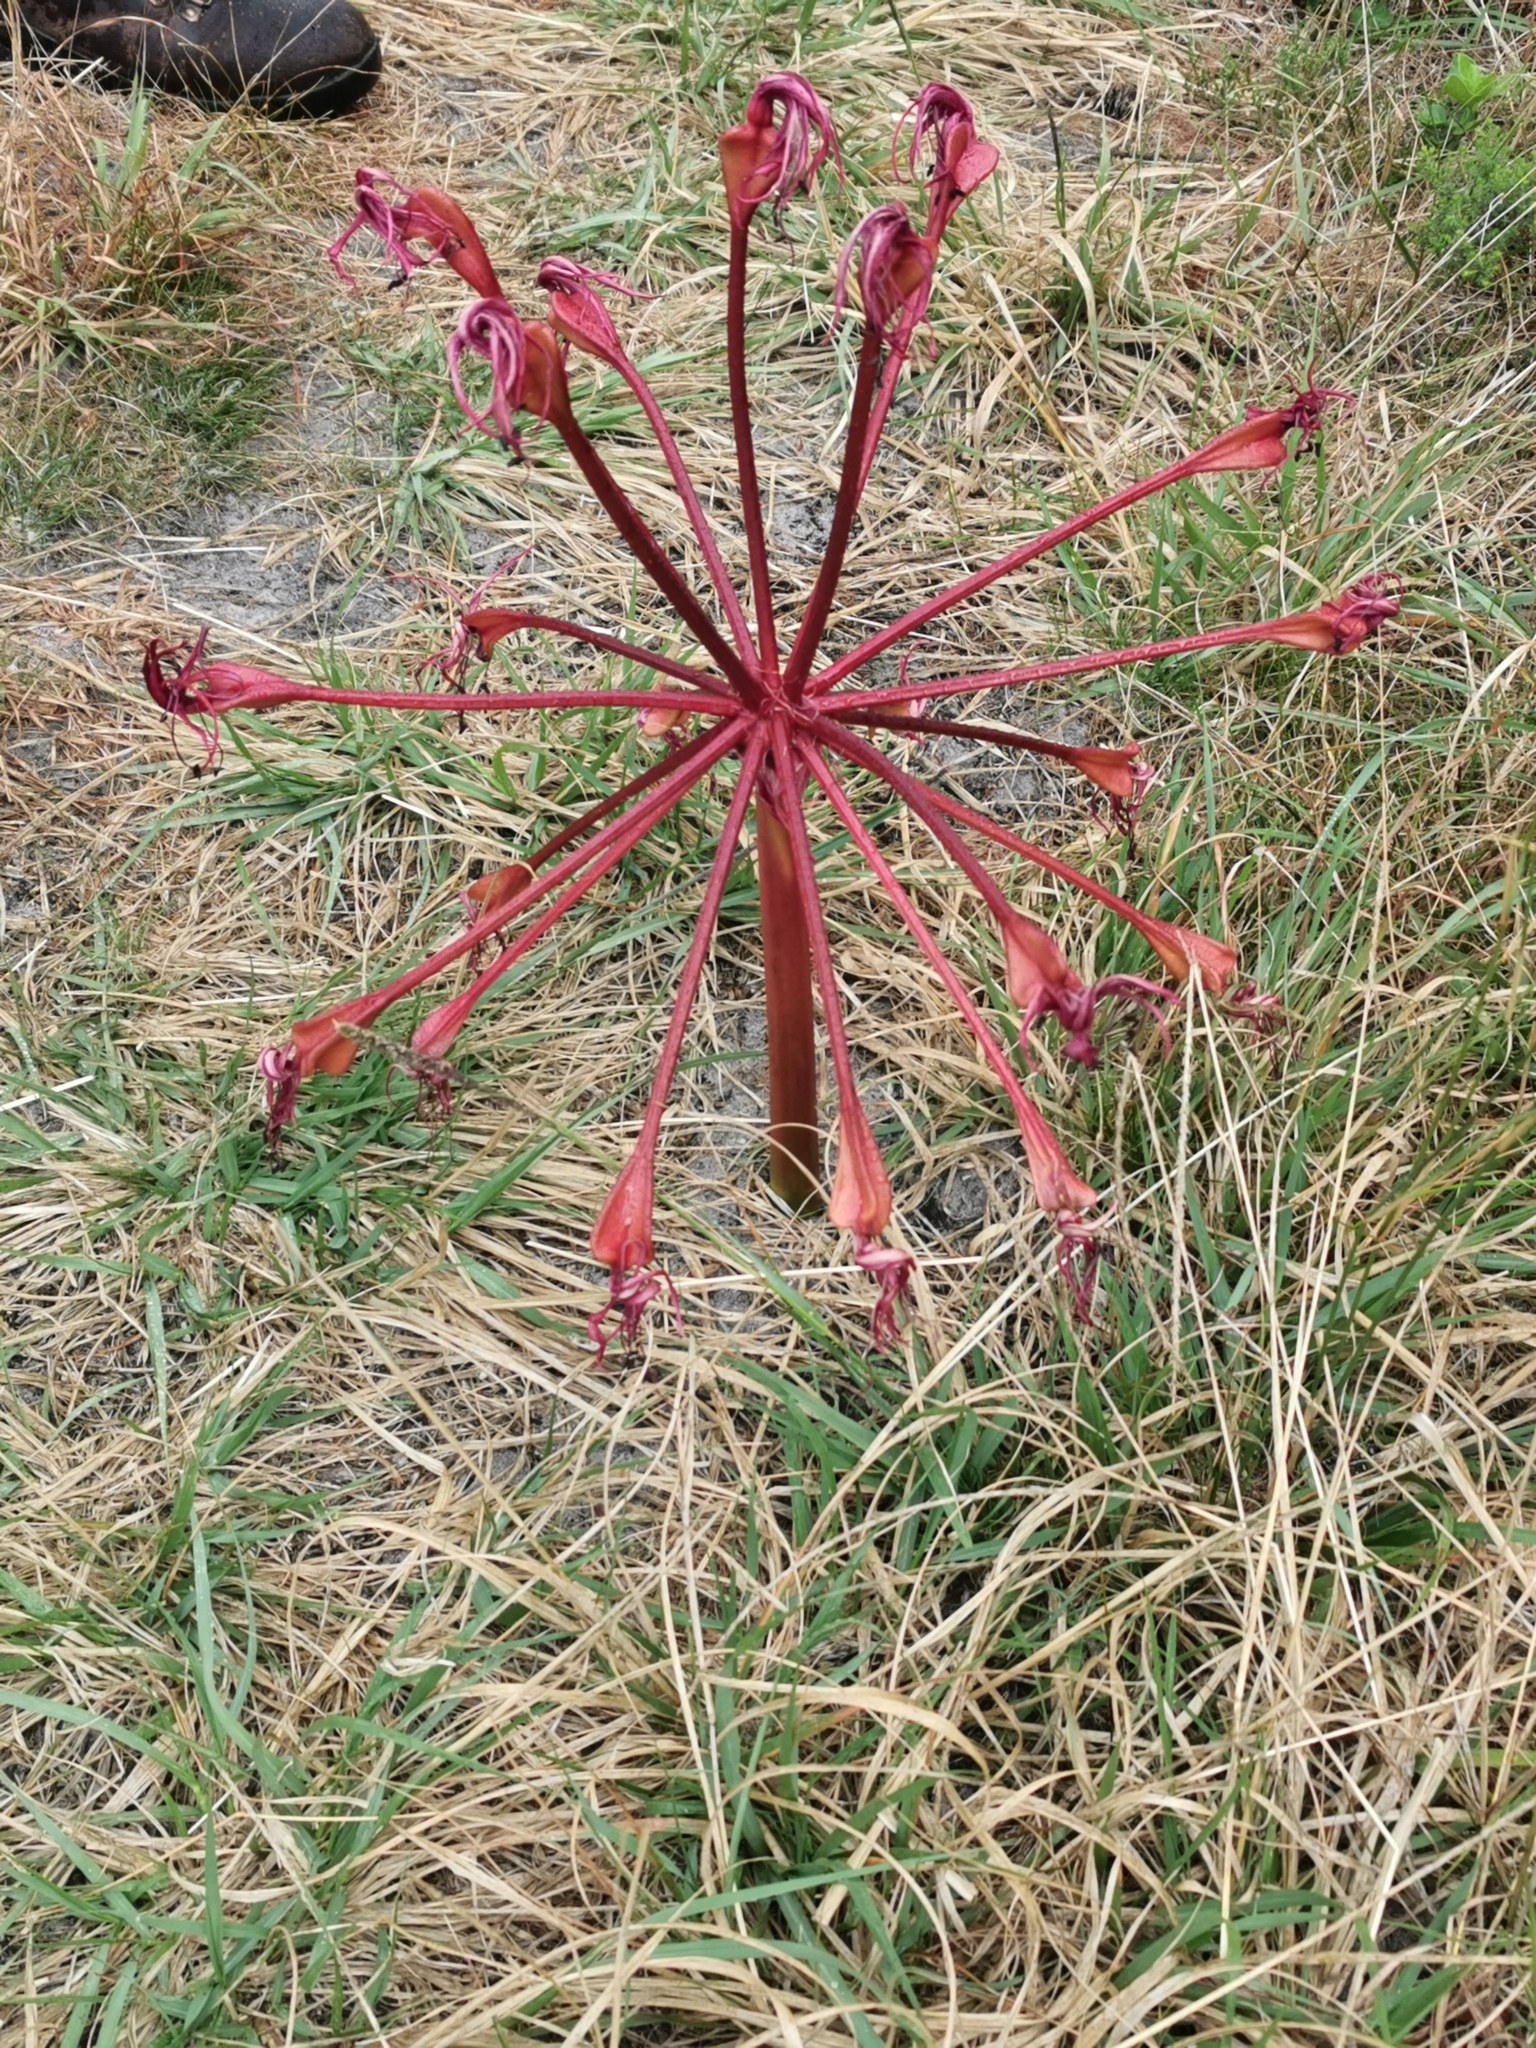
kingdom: Plantae
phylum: Tracheophyta
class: Liliopsida
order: Asparagales
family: Amaryllidaceae
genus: Brunsvigia
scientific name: Brunsvigia orientalis
